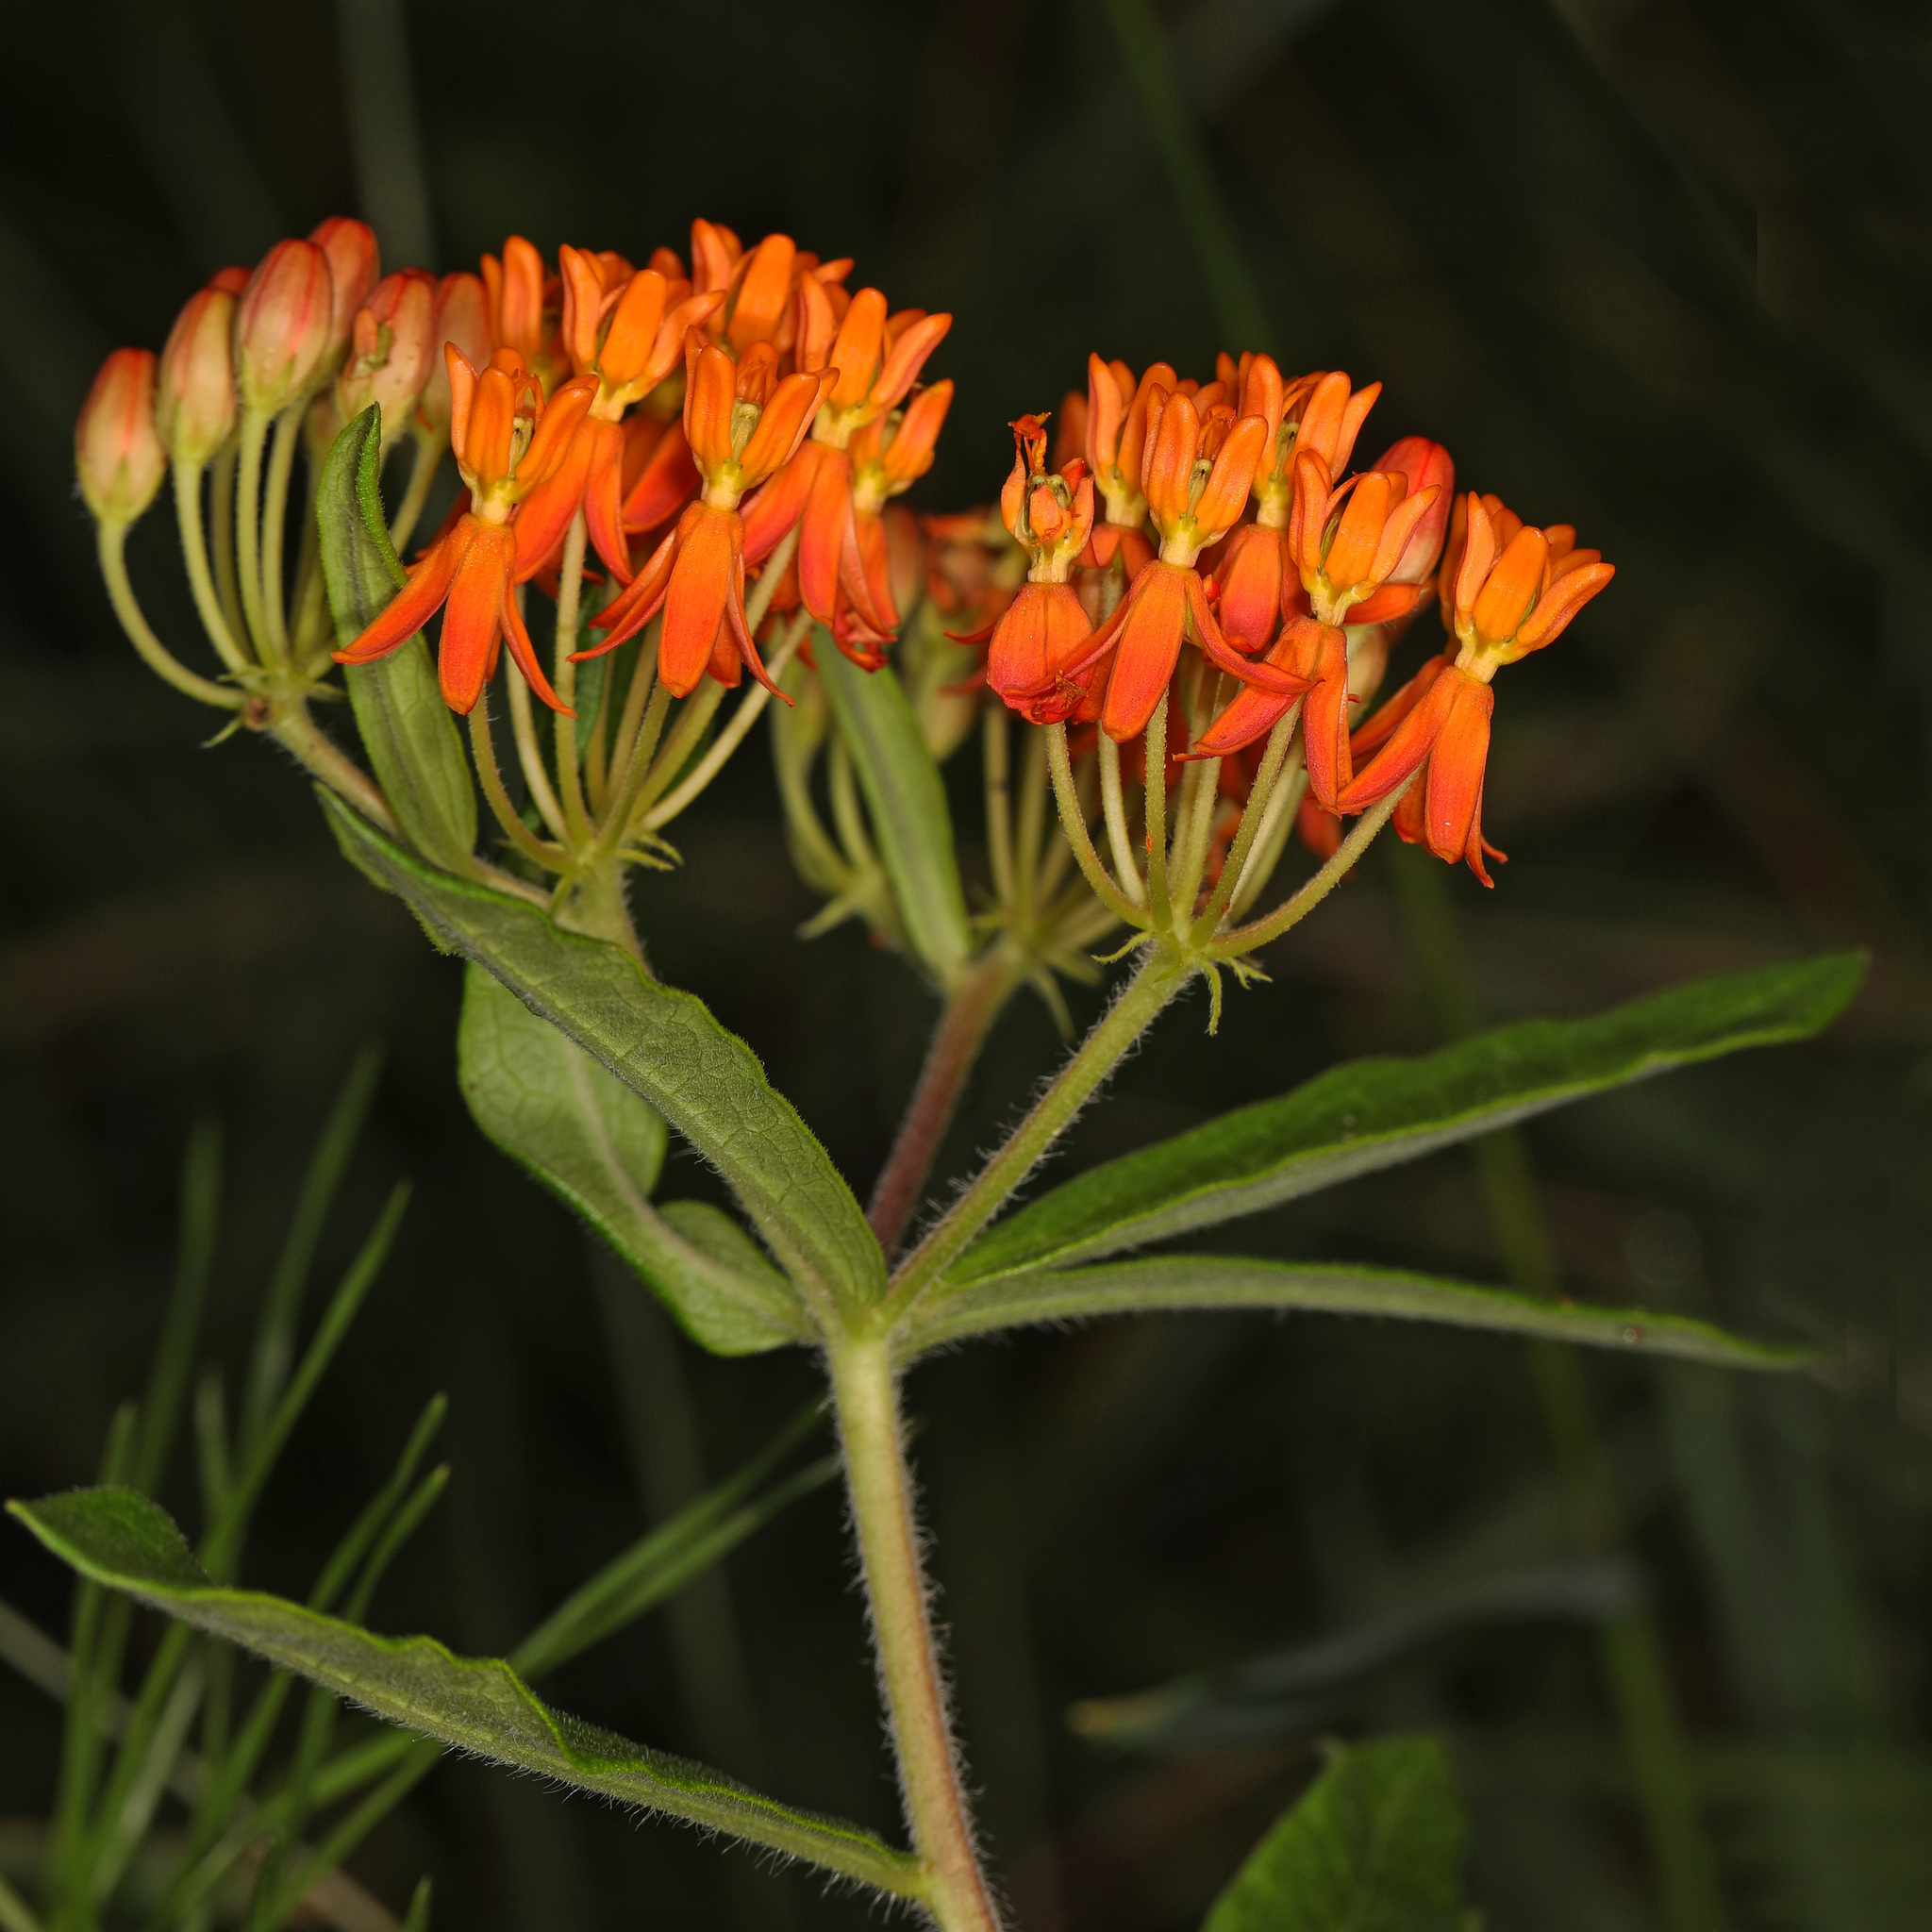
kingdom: Plantae
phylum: Tracheophyta
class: Magnoliopsida
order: Gentianales
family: Apocynaceae
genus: Asclepias
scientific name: Asclepias tuberosa
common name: Butterfly milkweed
